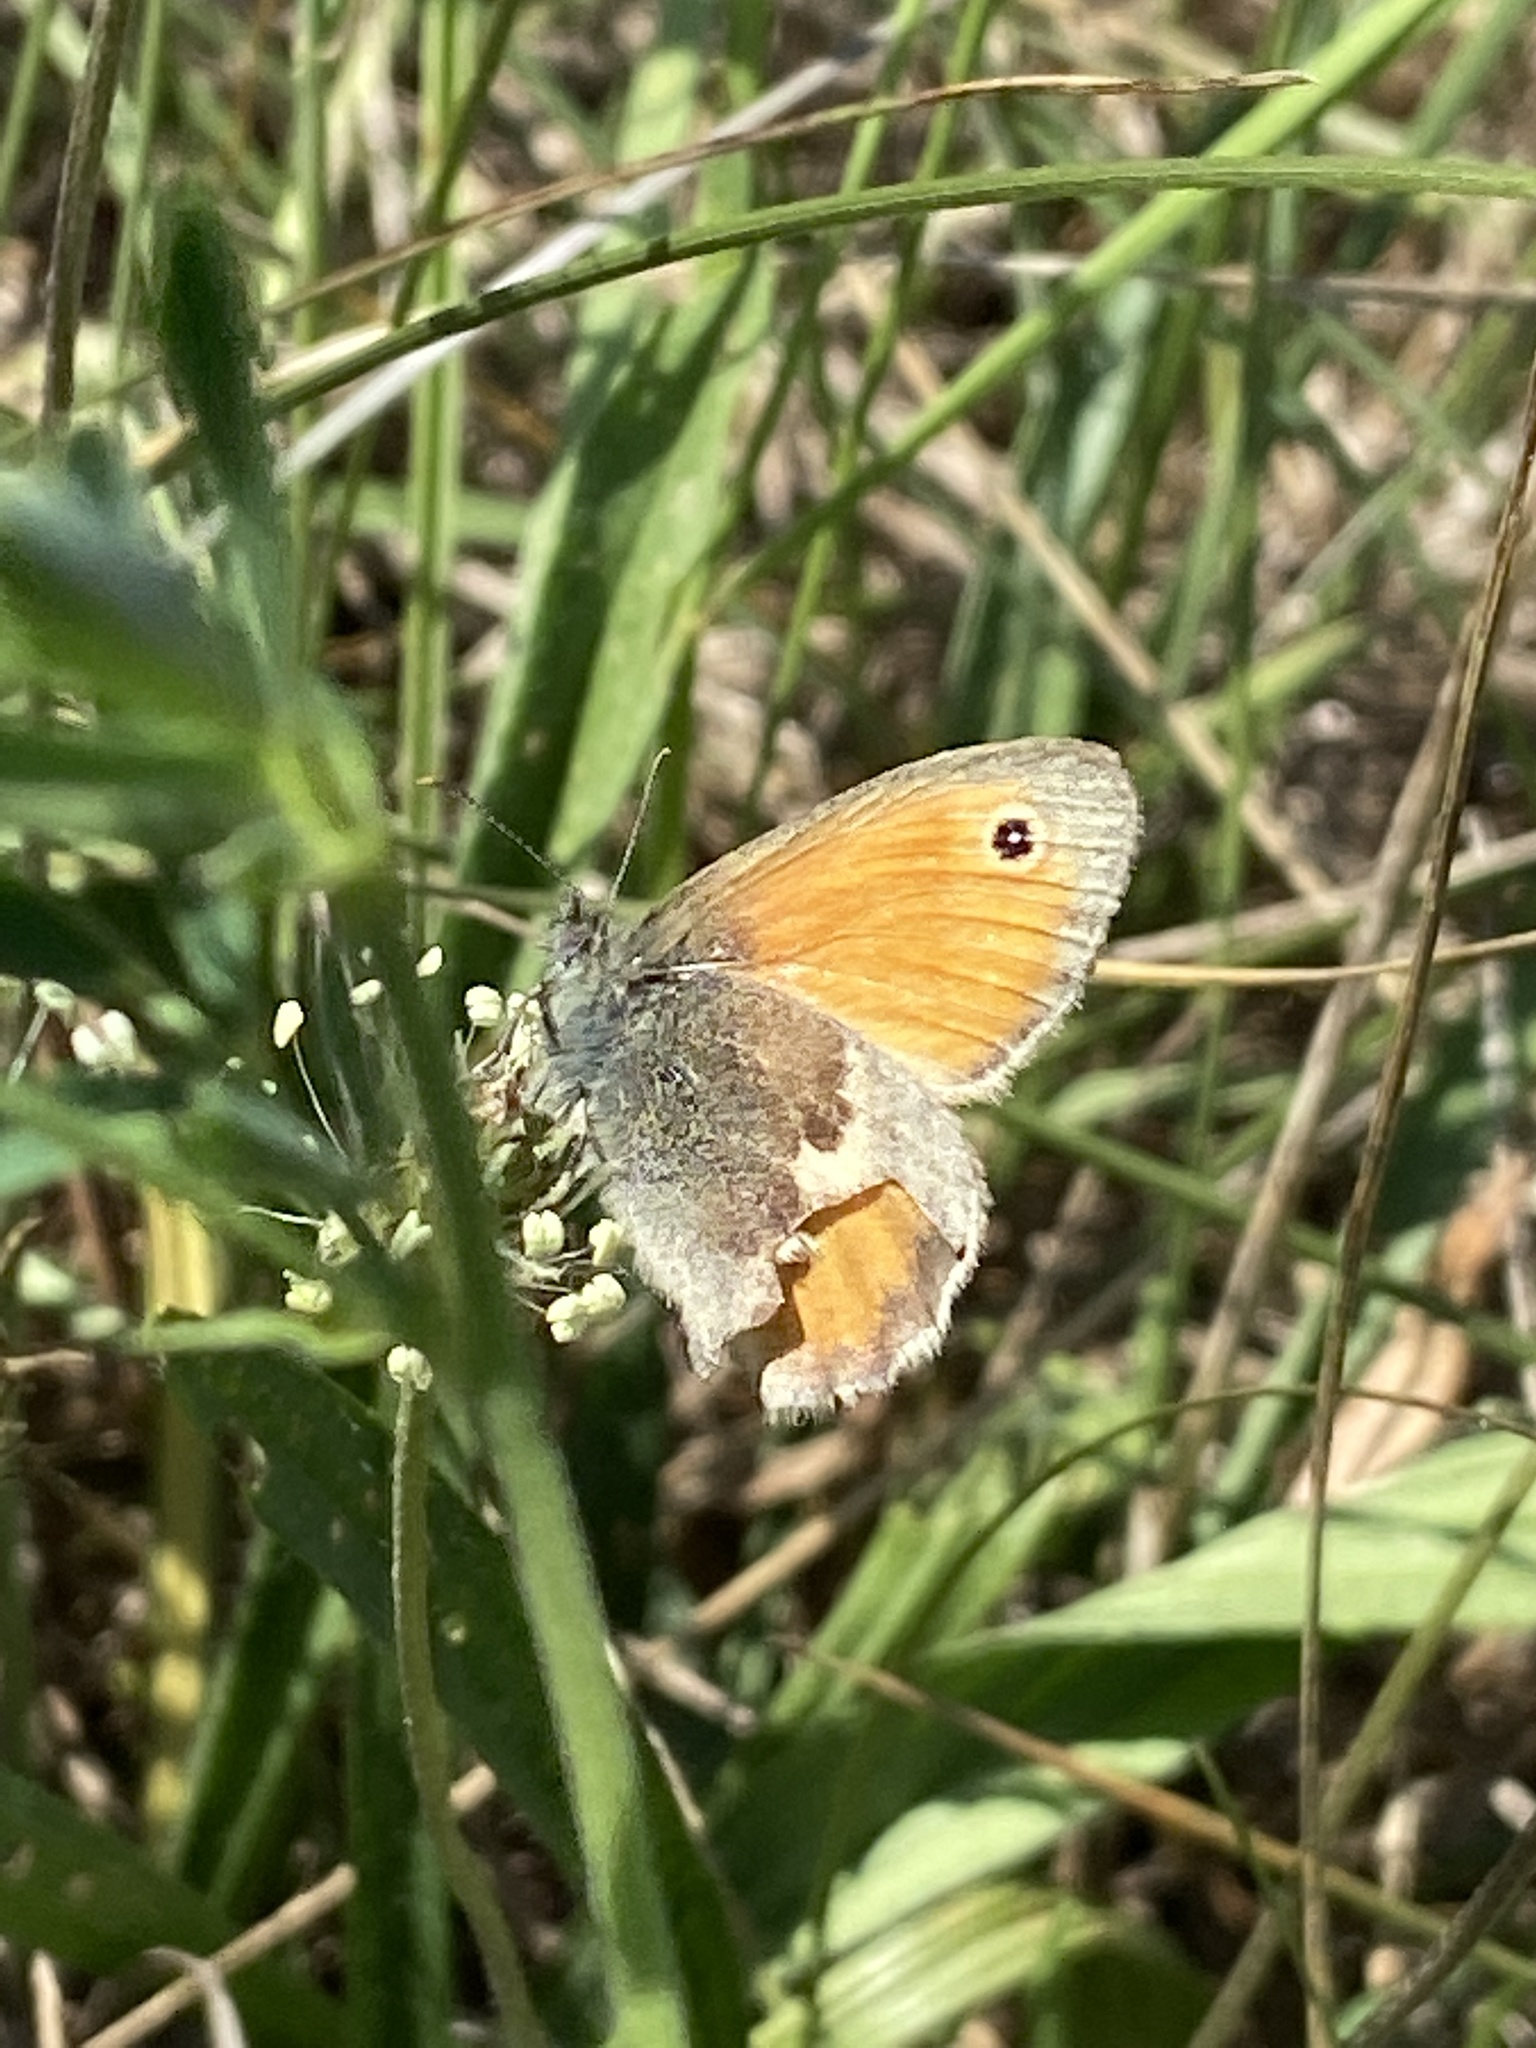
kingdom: Animalia
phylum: Arthropoda
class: Insecta
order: Lepidoptera
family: Nymphalidae
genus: Coenonympha
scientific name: Coenonympha pamphilus
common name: Small heath
